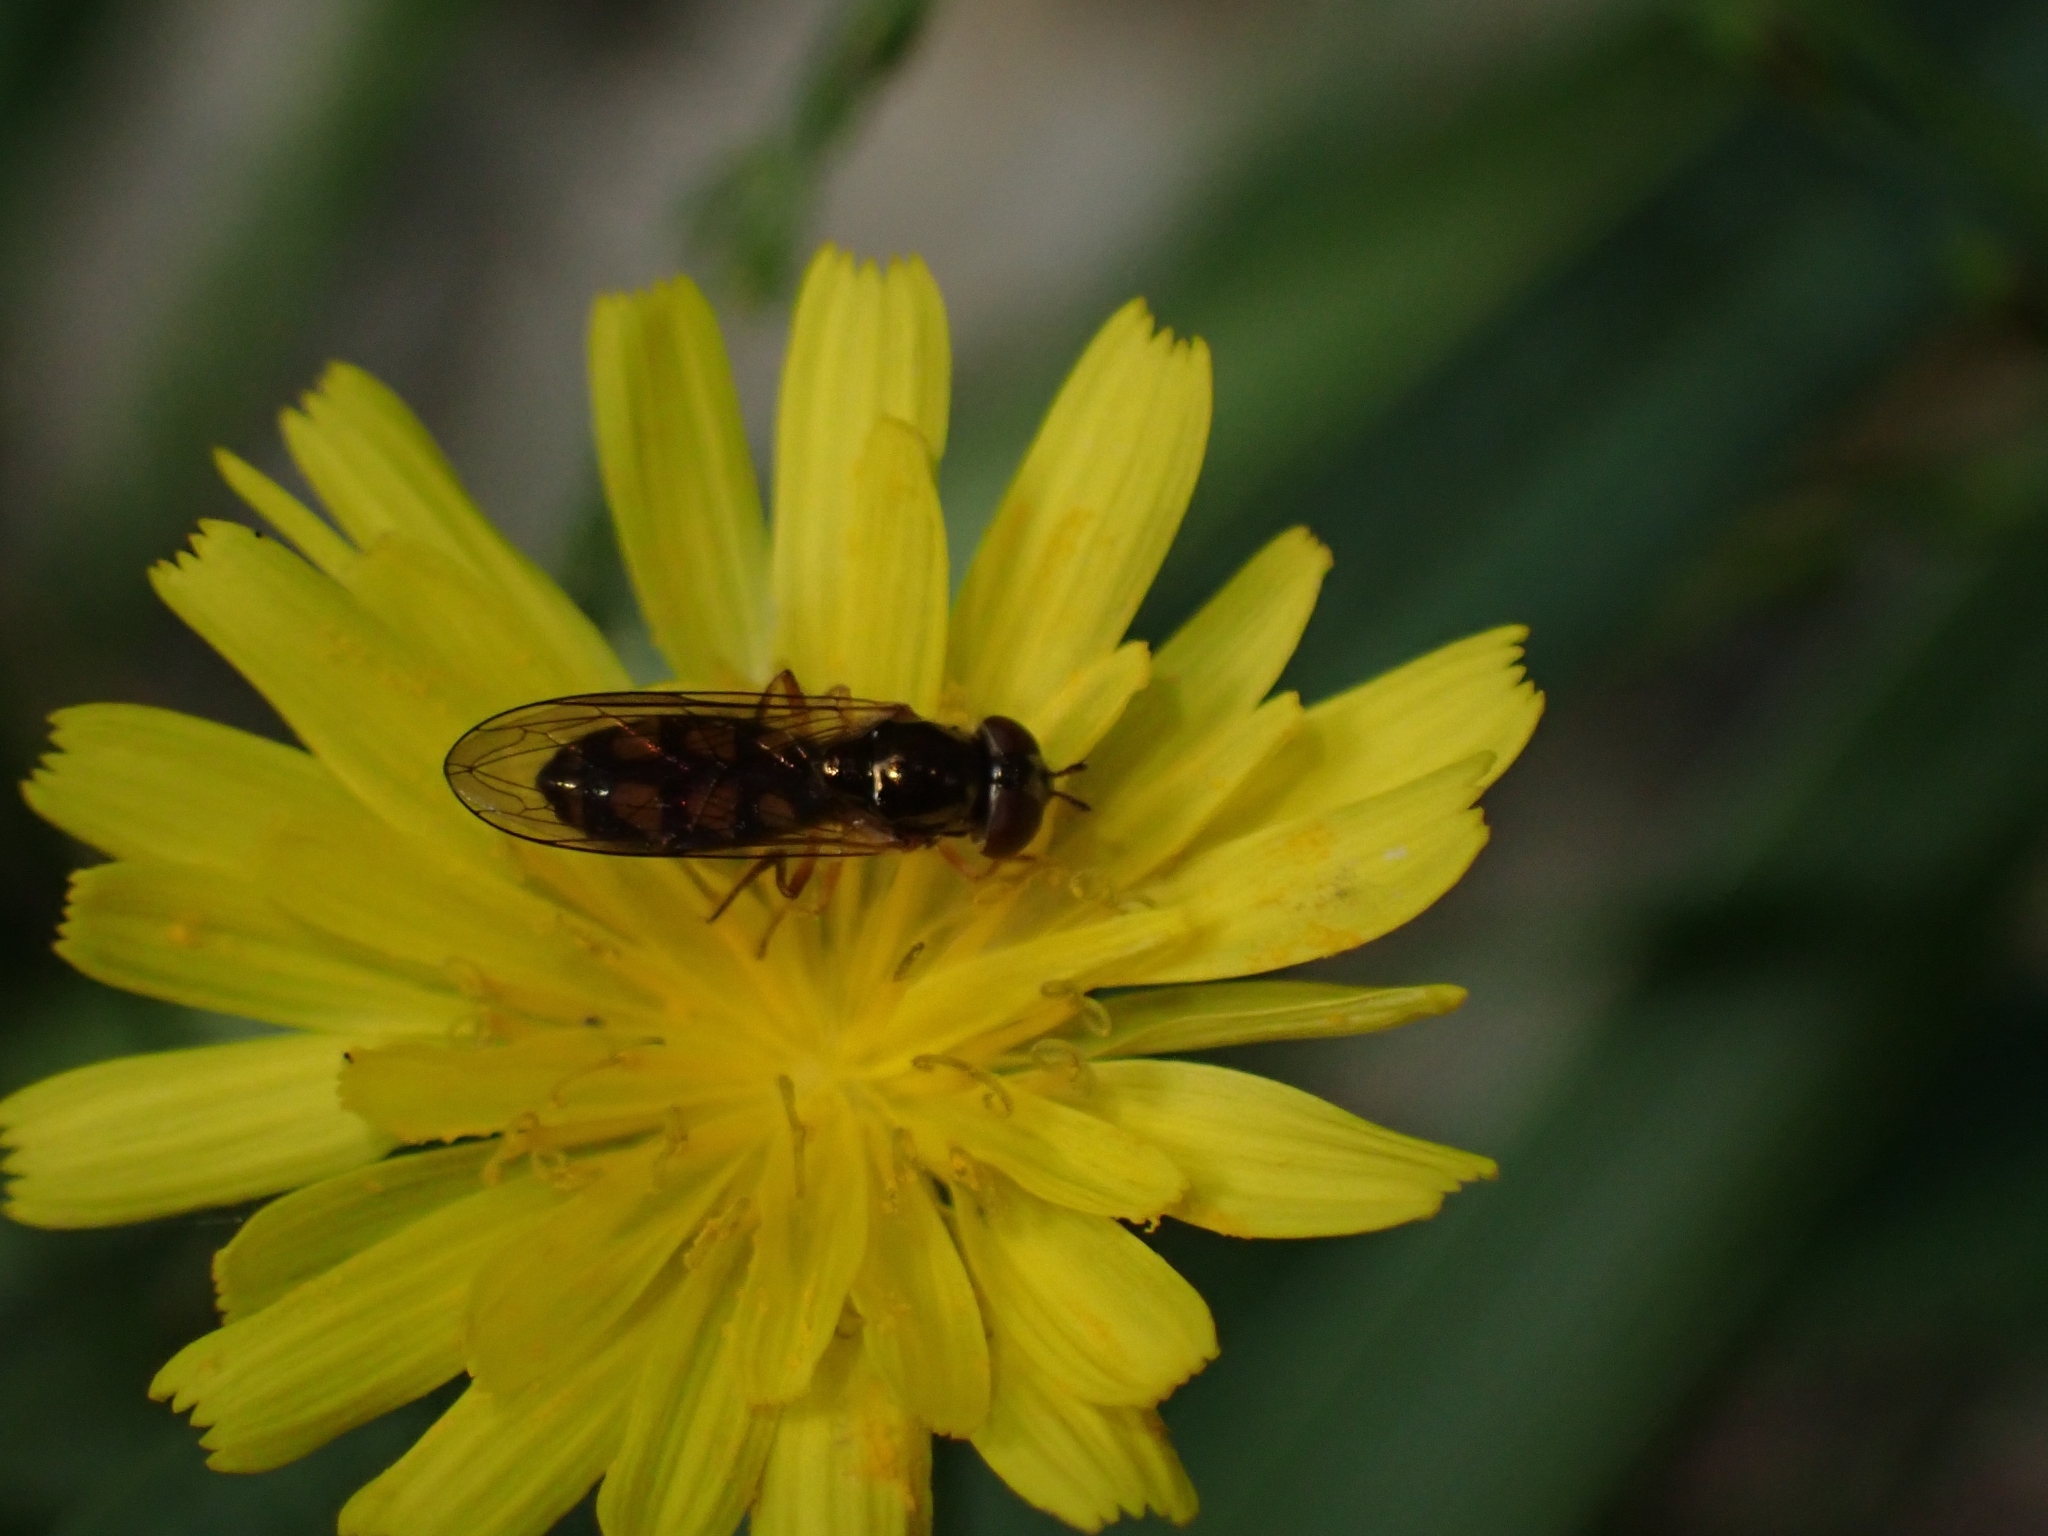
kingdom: Animalia
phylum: Arthropoda
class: Insecta
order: Diptera
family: Syrphidae
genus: Melanostoma
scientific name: Melanostoma fasciatum
